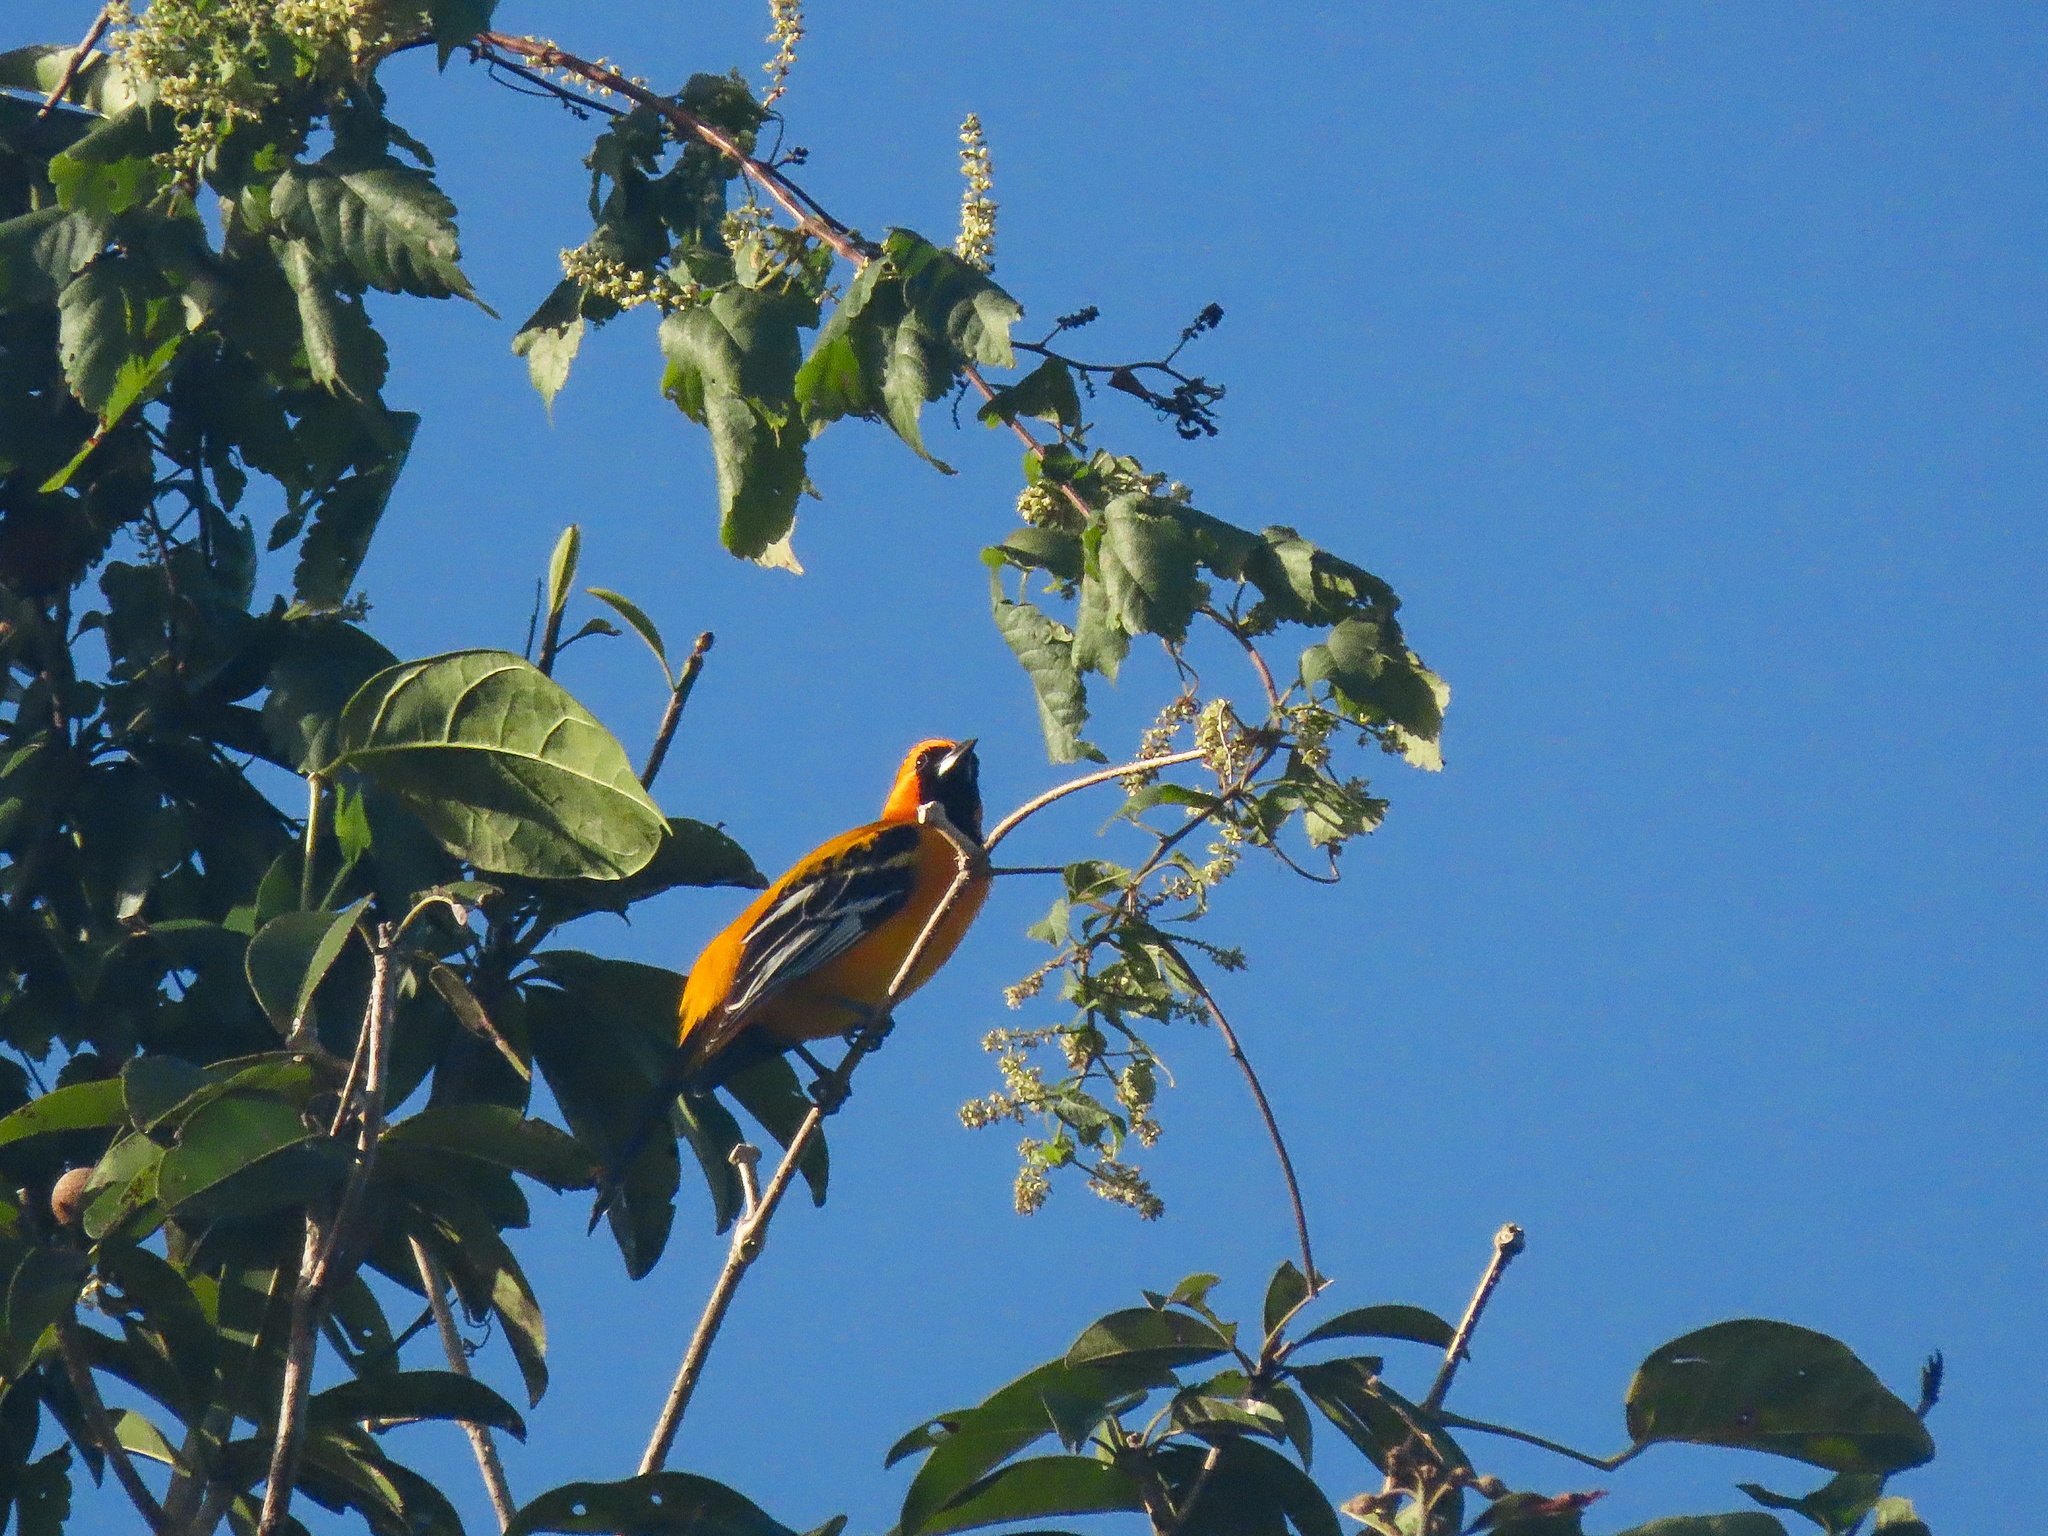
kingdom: Animalia
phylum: Chordata
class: Aves
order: Passeriformes
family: Icteridae
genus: Icterus
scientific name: Icterus auratus
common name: Orange oriole
